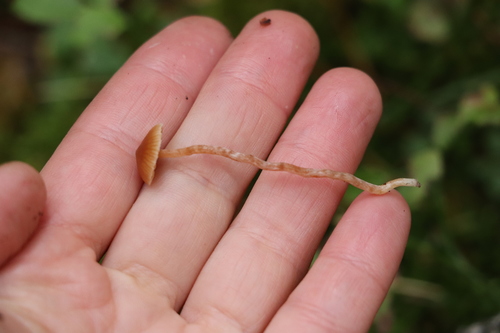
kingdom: Fungi
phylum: Basidiomycota
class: Agaricomycetes
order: Agaricales
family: Cortinariaceae
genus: Cortinarius
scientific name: Cortinarius acutus
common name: Peaked webcap
